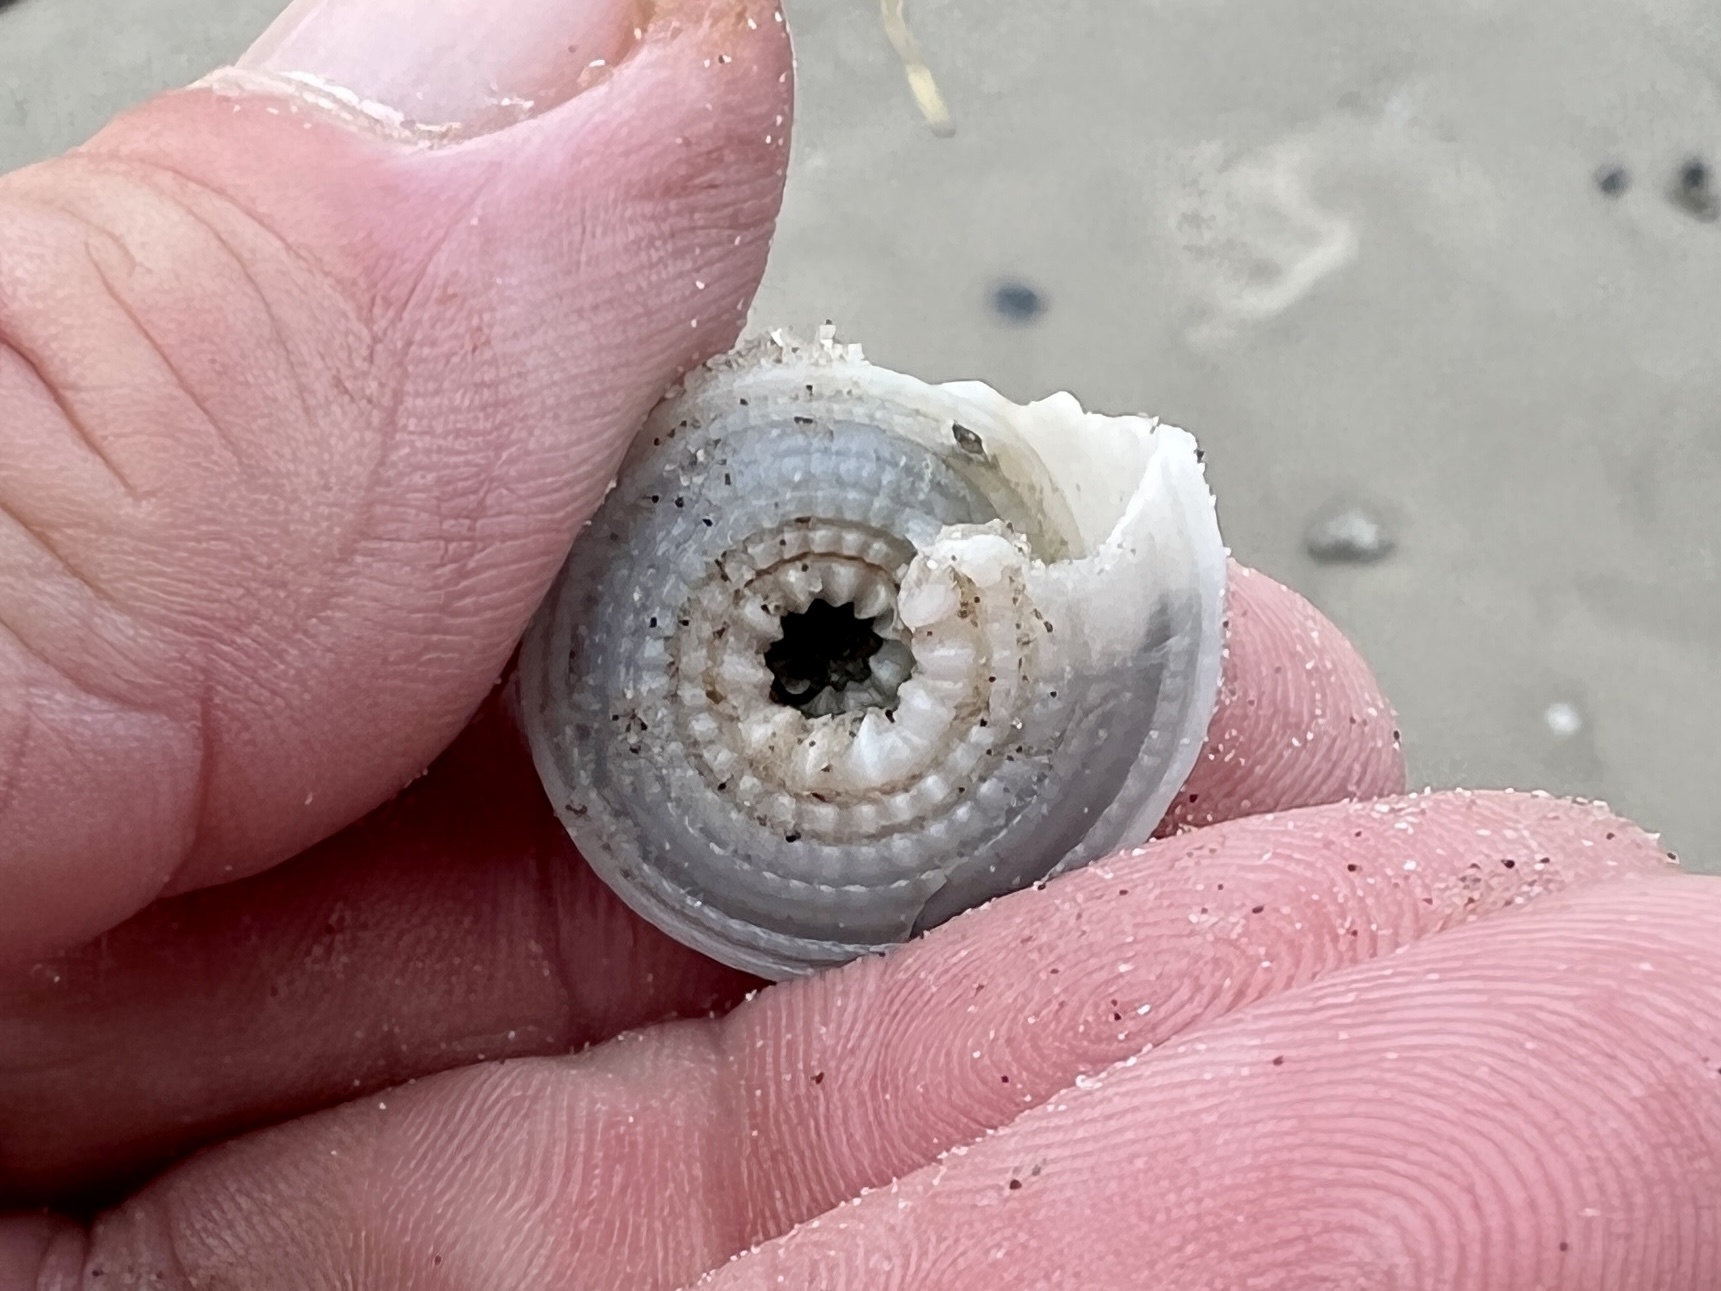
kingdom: Animalia
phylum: Mollusca
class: Gastropoda
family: Architectonicidae
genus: Architectonica
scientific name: Architectonica nobilis
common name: Common sundial
